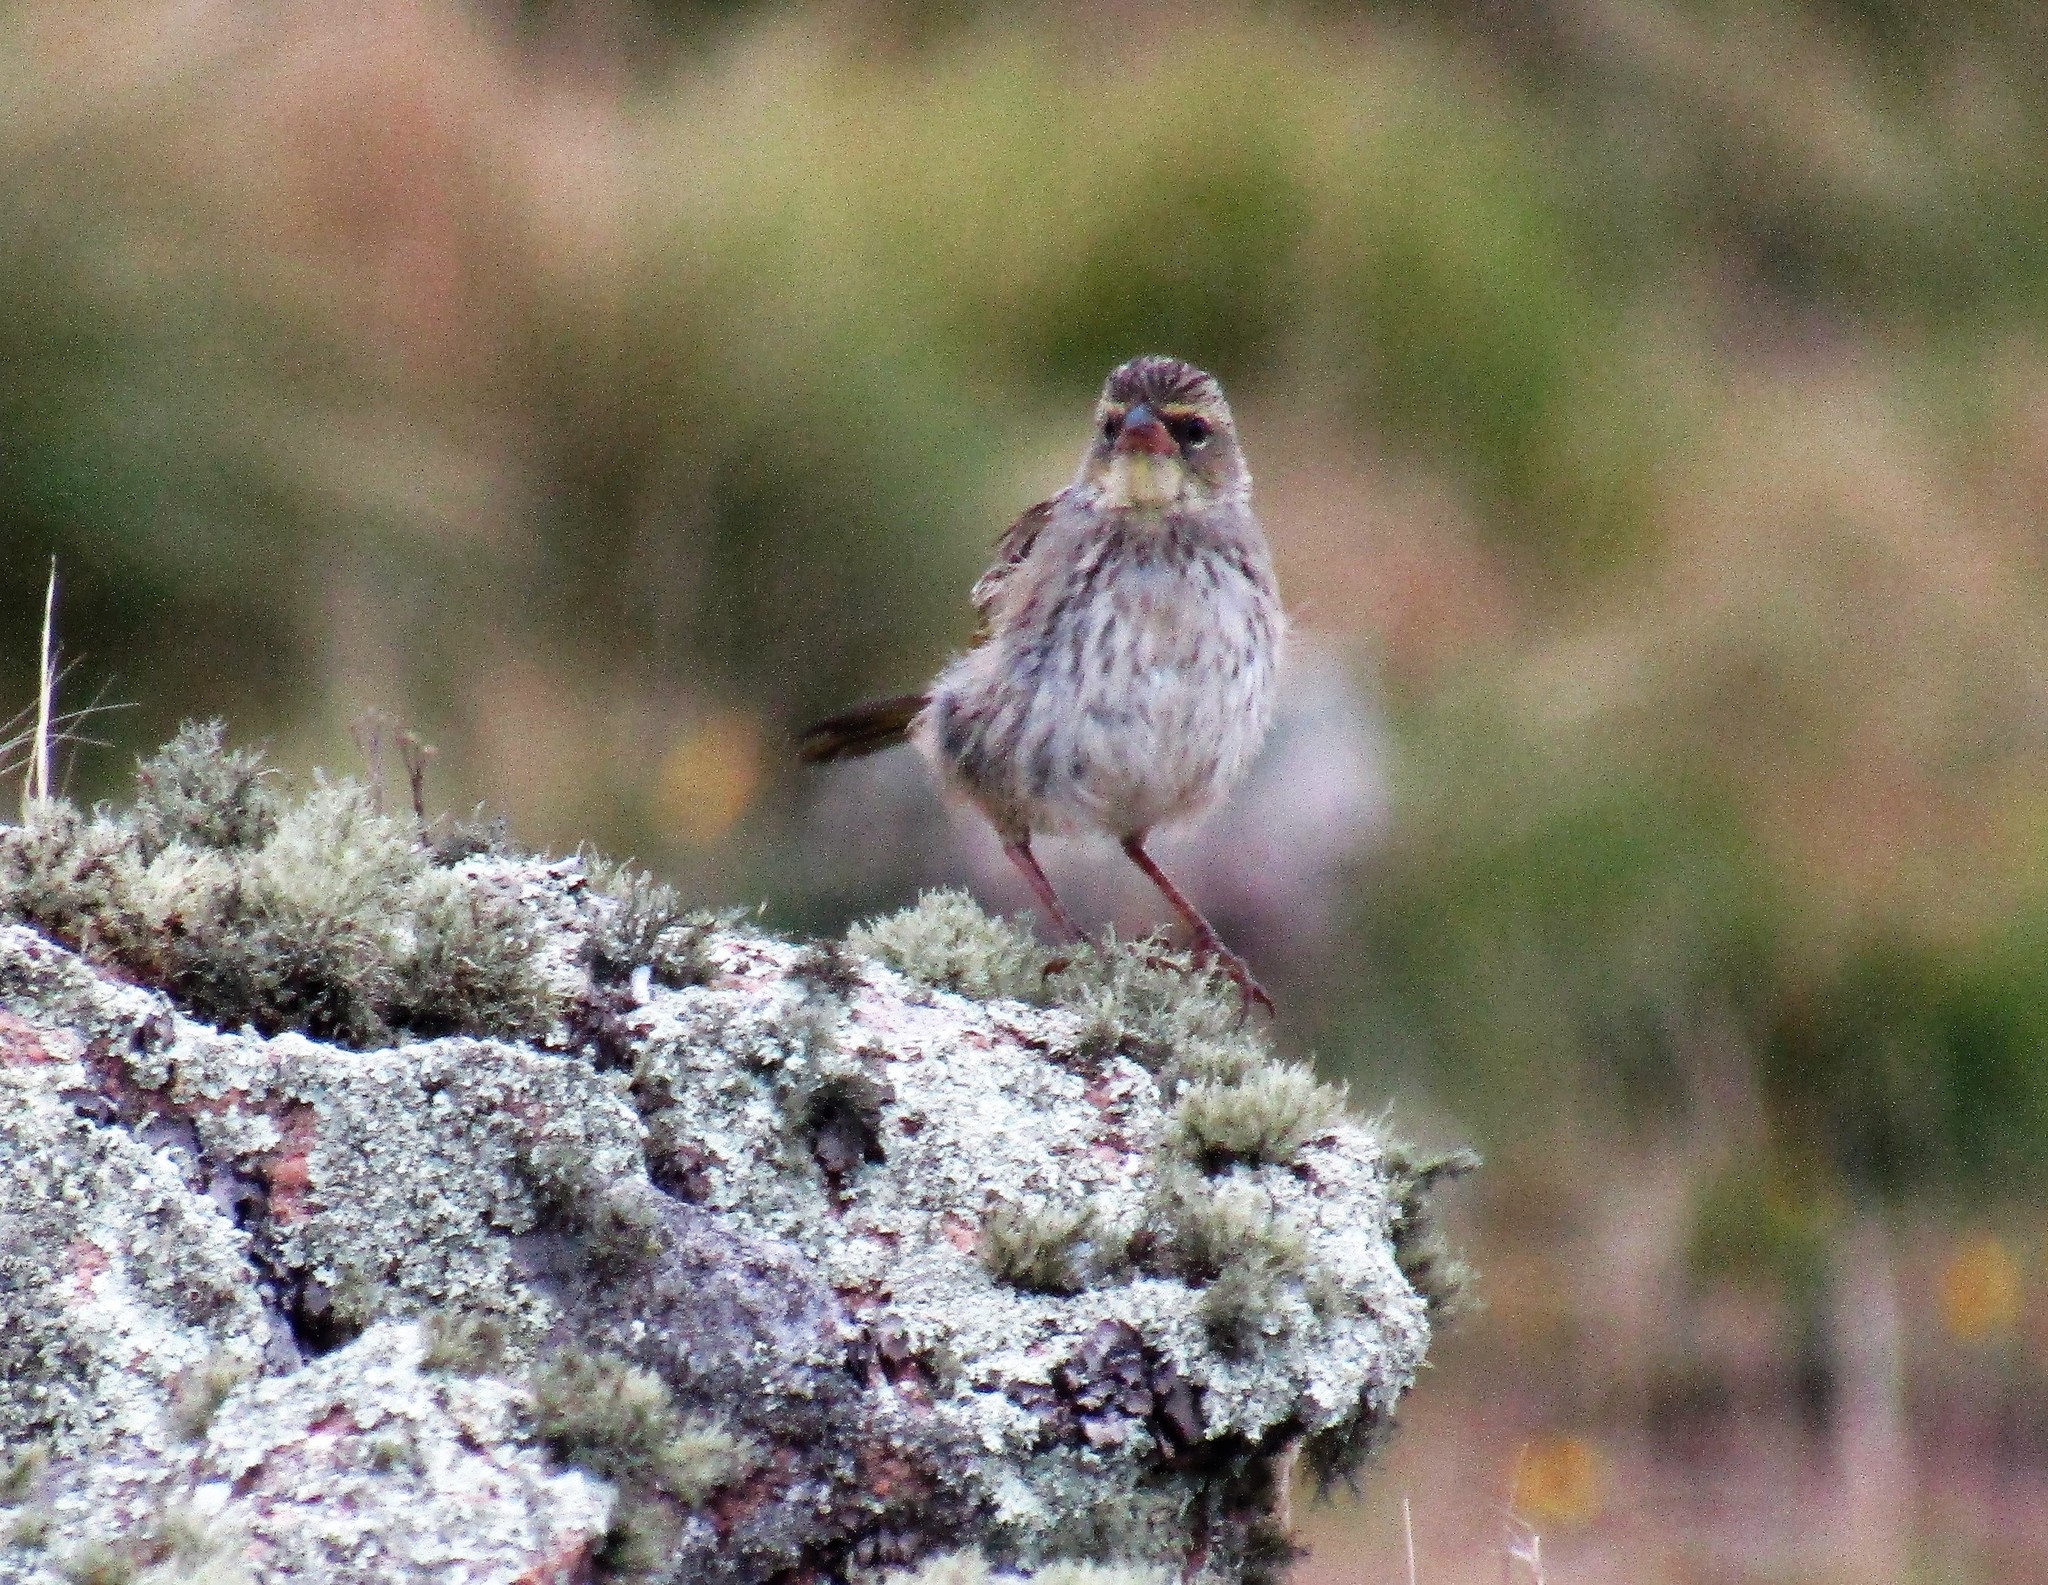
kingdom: Animalia
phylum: Chordata
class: Aves
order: Passeriformes
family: Thraupidae
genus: Embernagra
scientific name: Embernagra platensis
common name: Pampa finch
